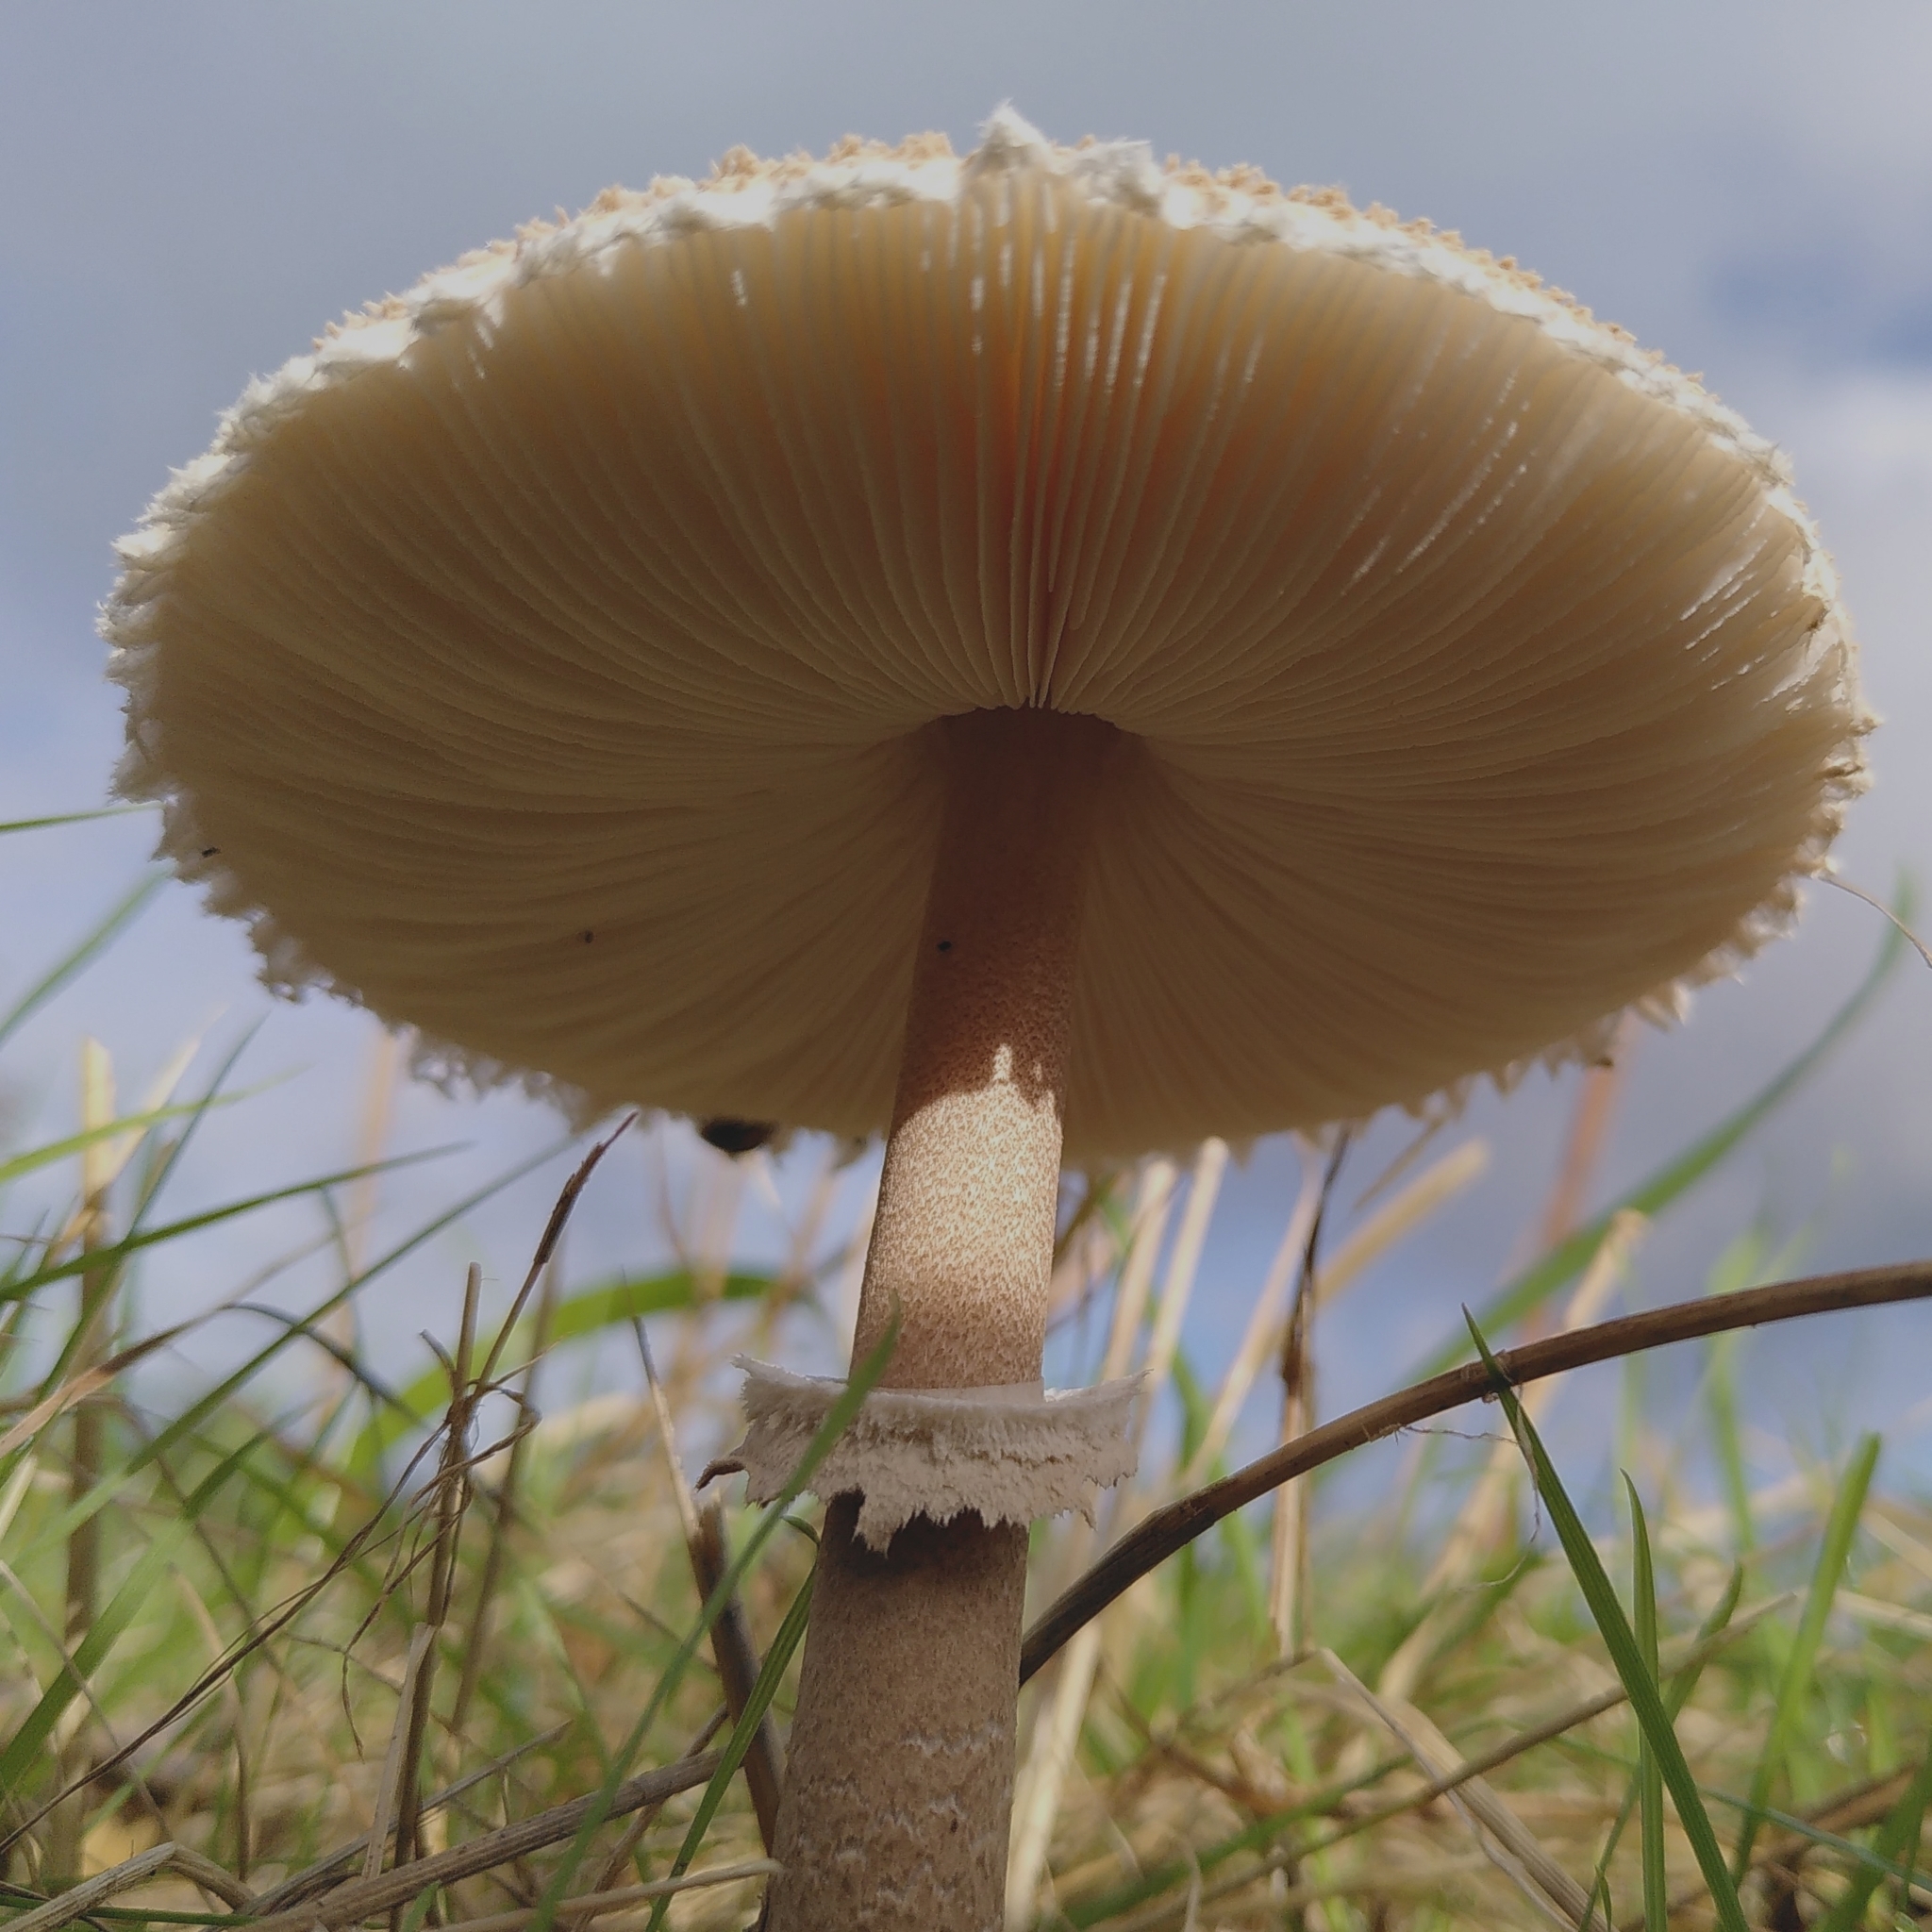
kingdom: Fungi
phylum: Basidiomycota
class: Agaricomycetes
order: Agaricales
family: Agaricaceae
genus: Macrolepiota
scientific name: Macrolepiota procera
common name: Parasol
